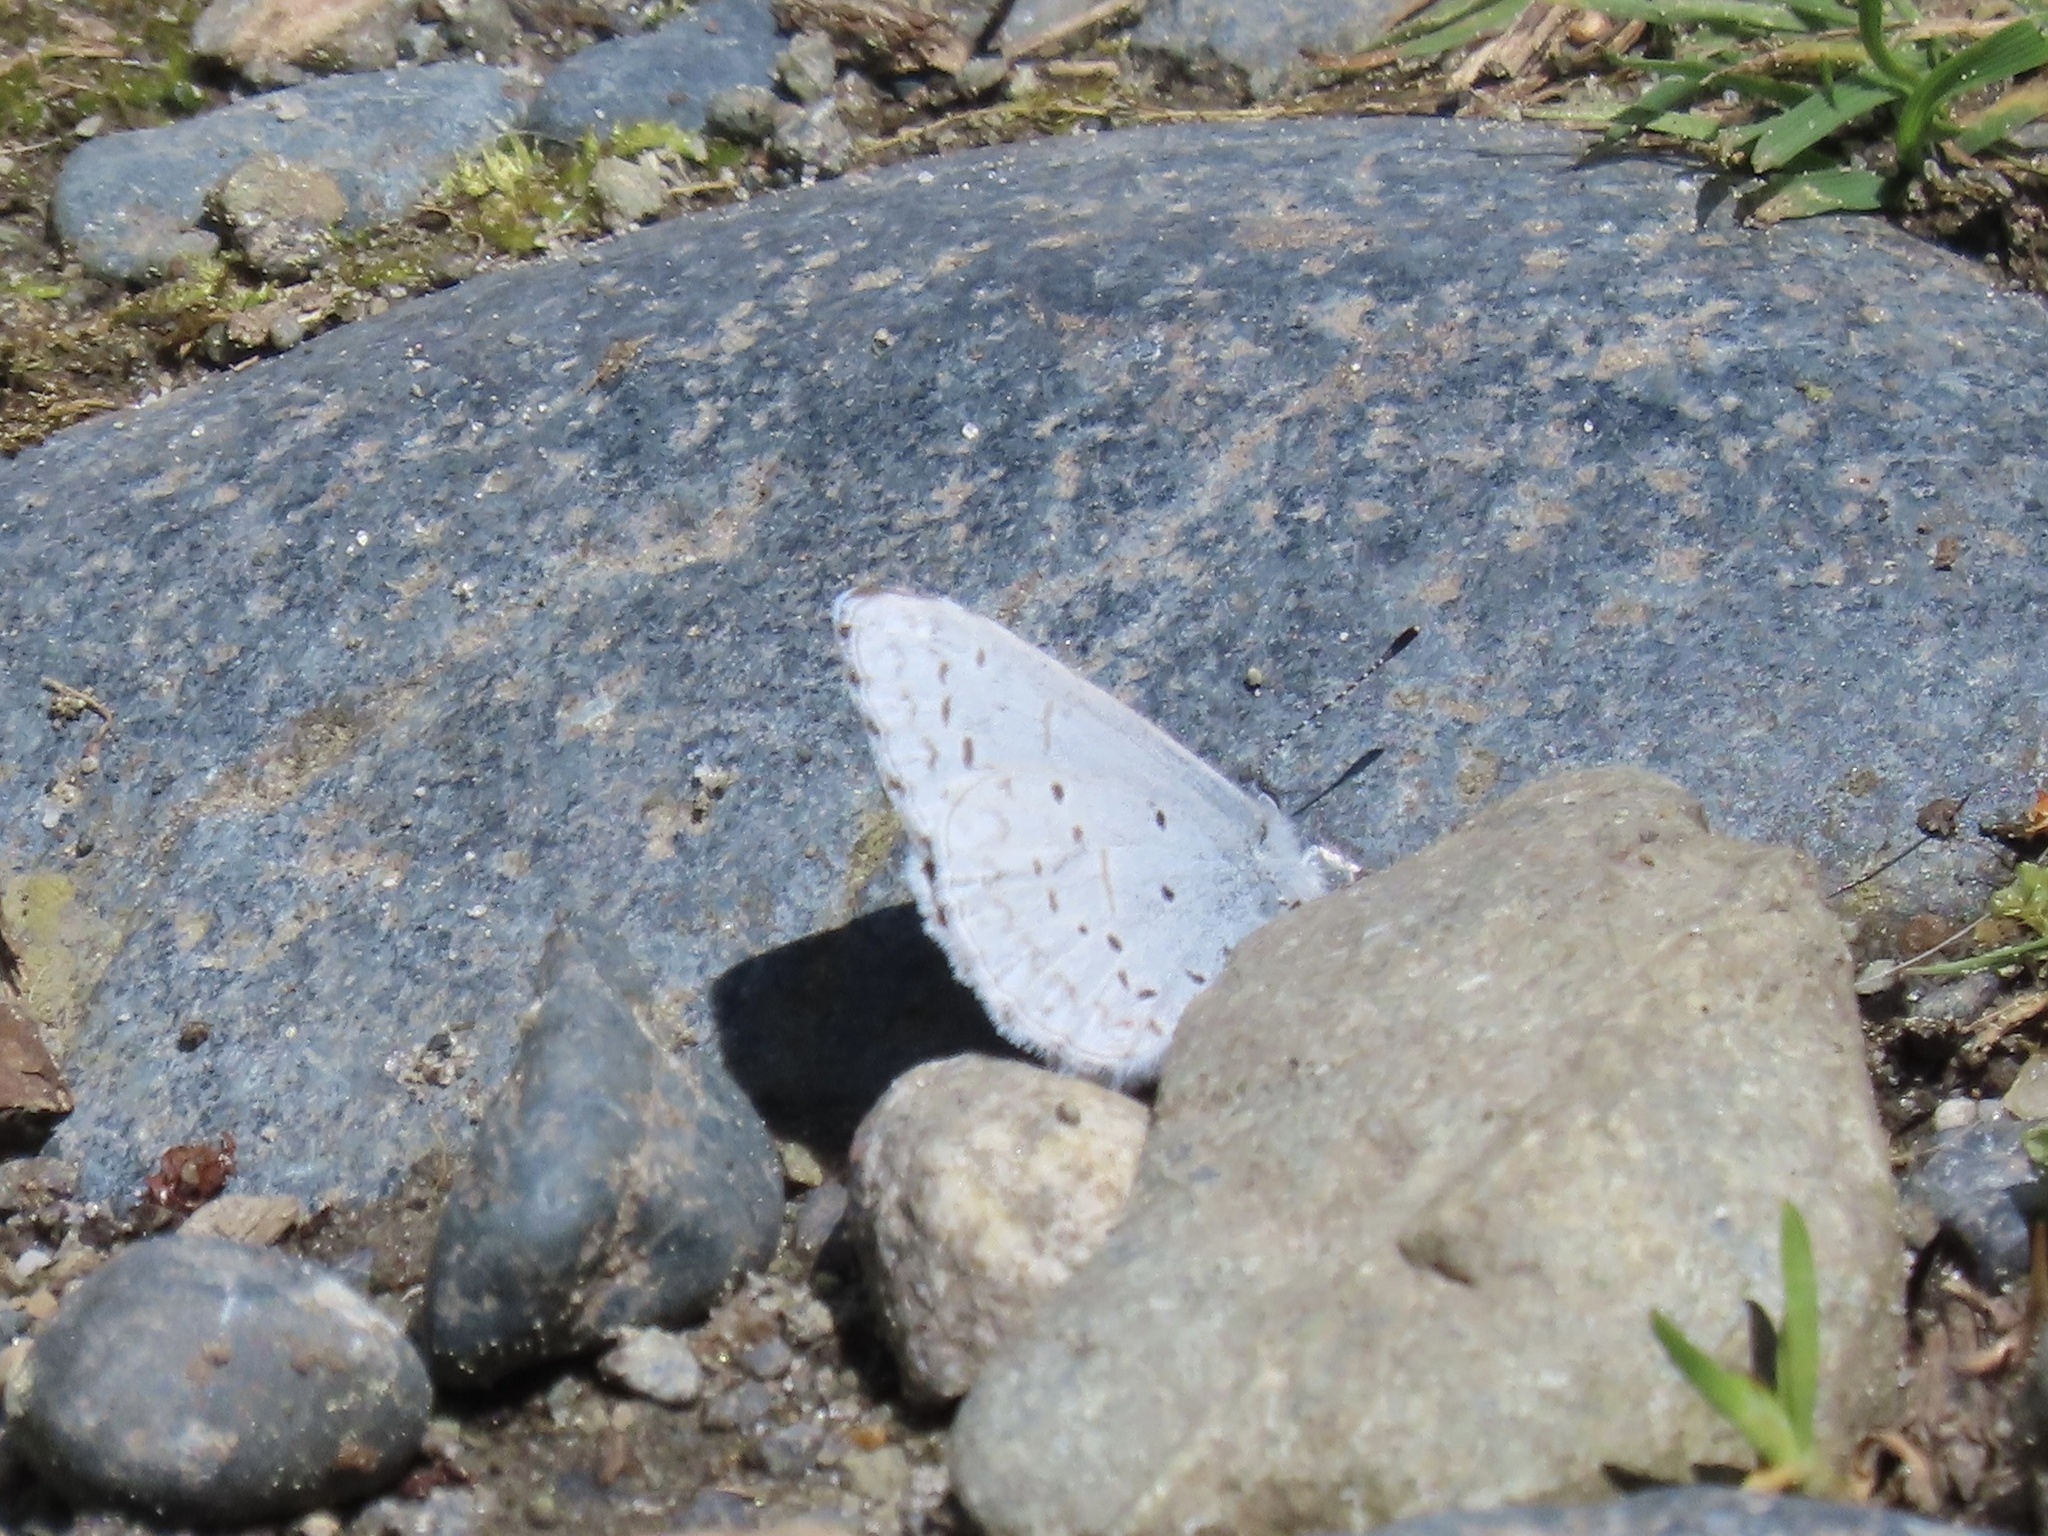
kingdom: Animalia
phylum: Arthropoda
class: Insecta
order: Lepidoptera
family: Lycaenidae
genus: Celastrina
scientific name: Celastrina ladon
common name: Spring azure
